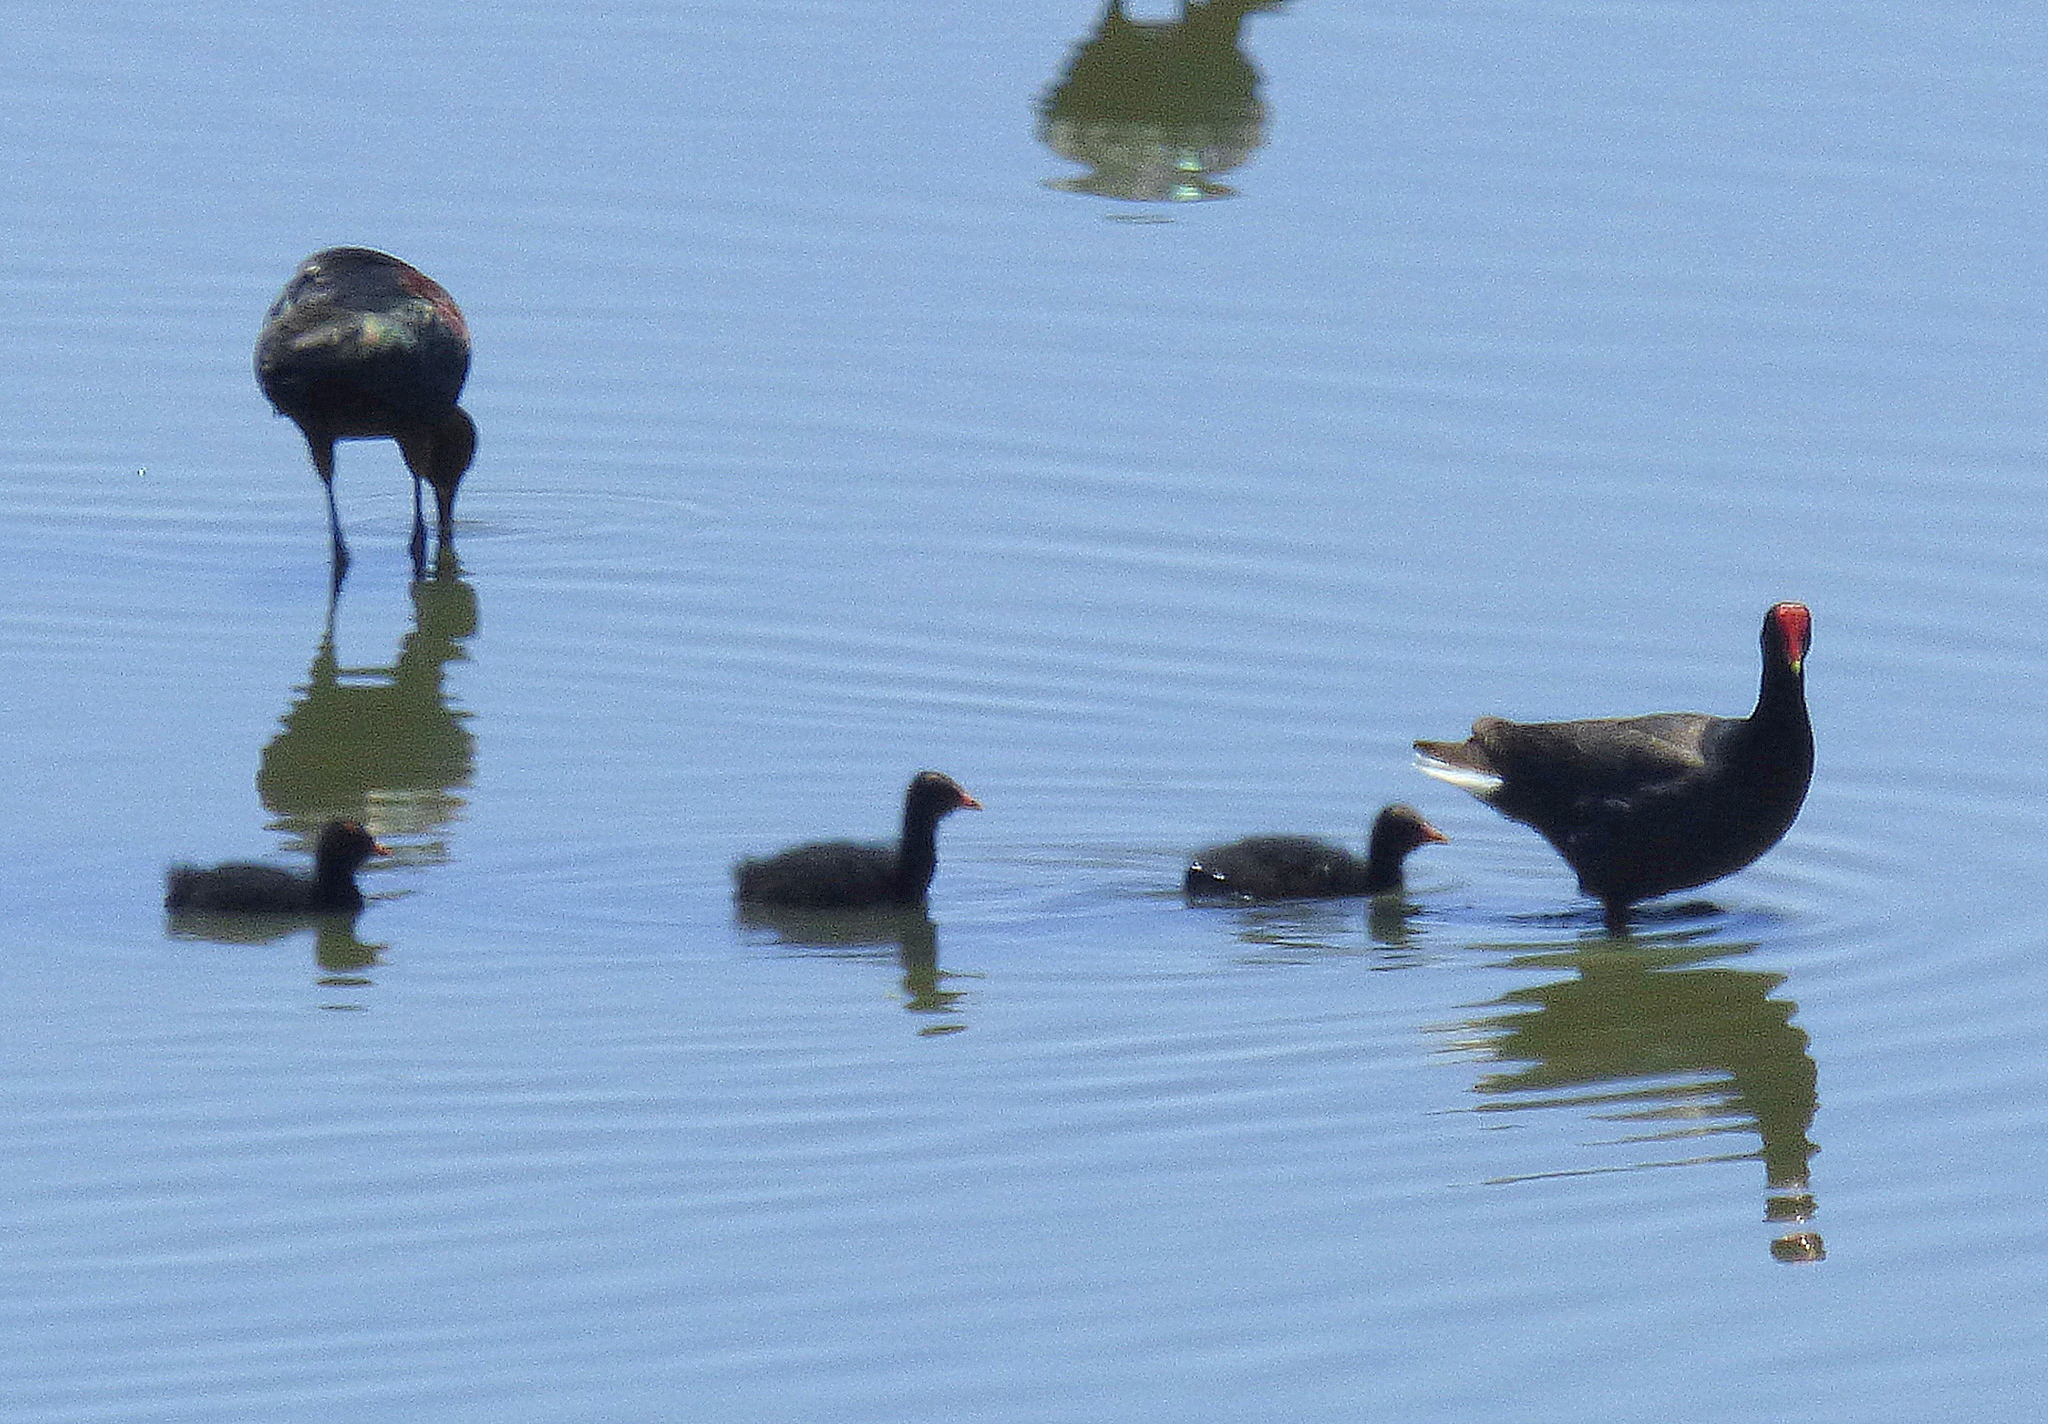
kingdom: Animalia
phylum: Chordata
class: Aves
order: Gruiformes
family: Rallidae
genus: Gallinula
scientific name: Gallinula chloropus
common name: Common moorhen
